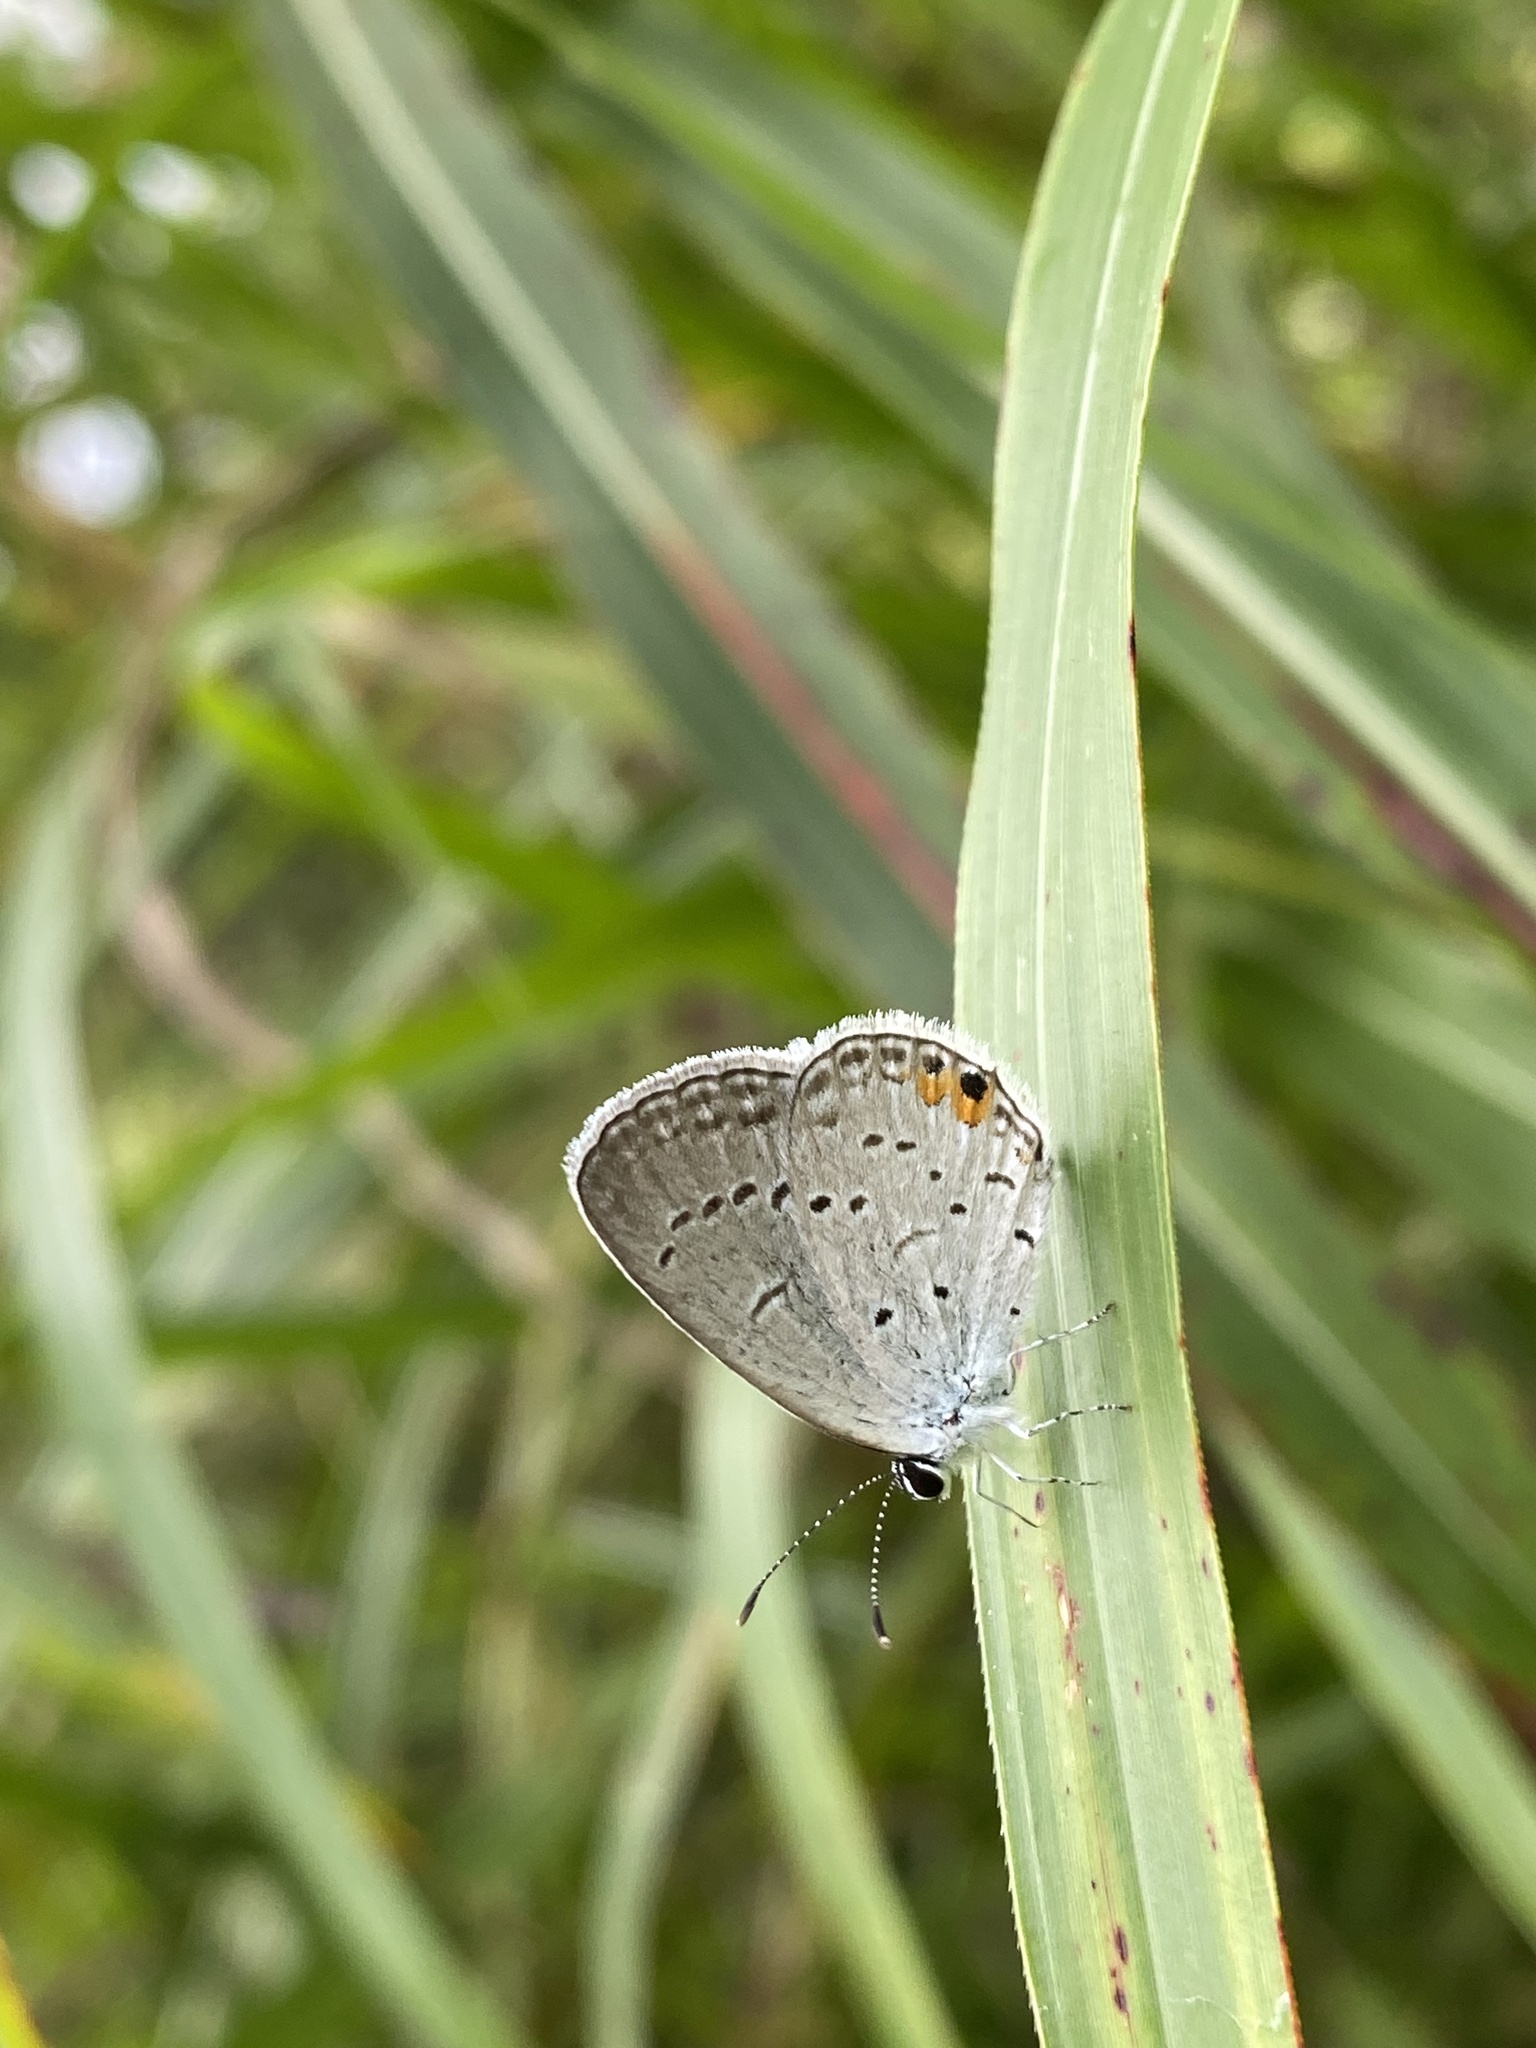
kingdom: Animalia
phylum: Arthropoda
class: Insecta
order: Lepidoptera
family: Lycaenidae
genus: Elkalyce
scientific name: Elkalyce comyntas
